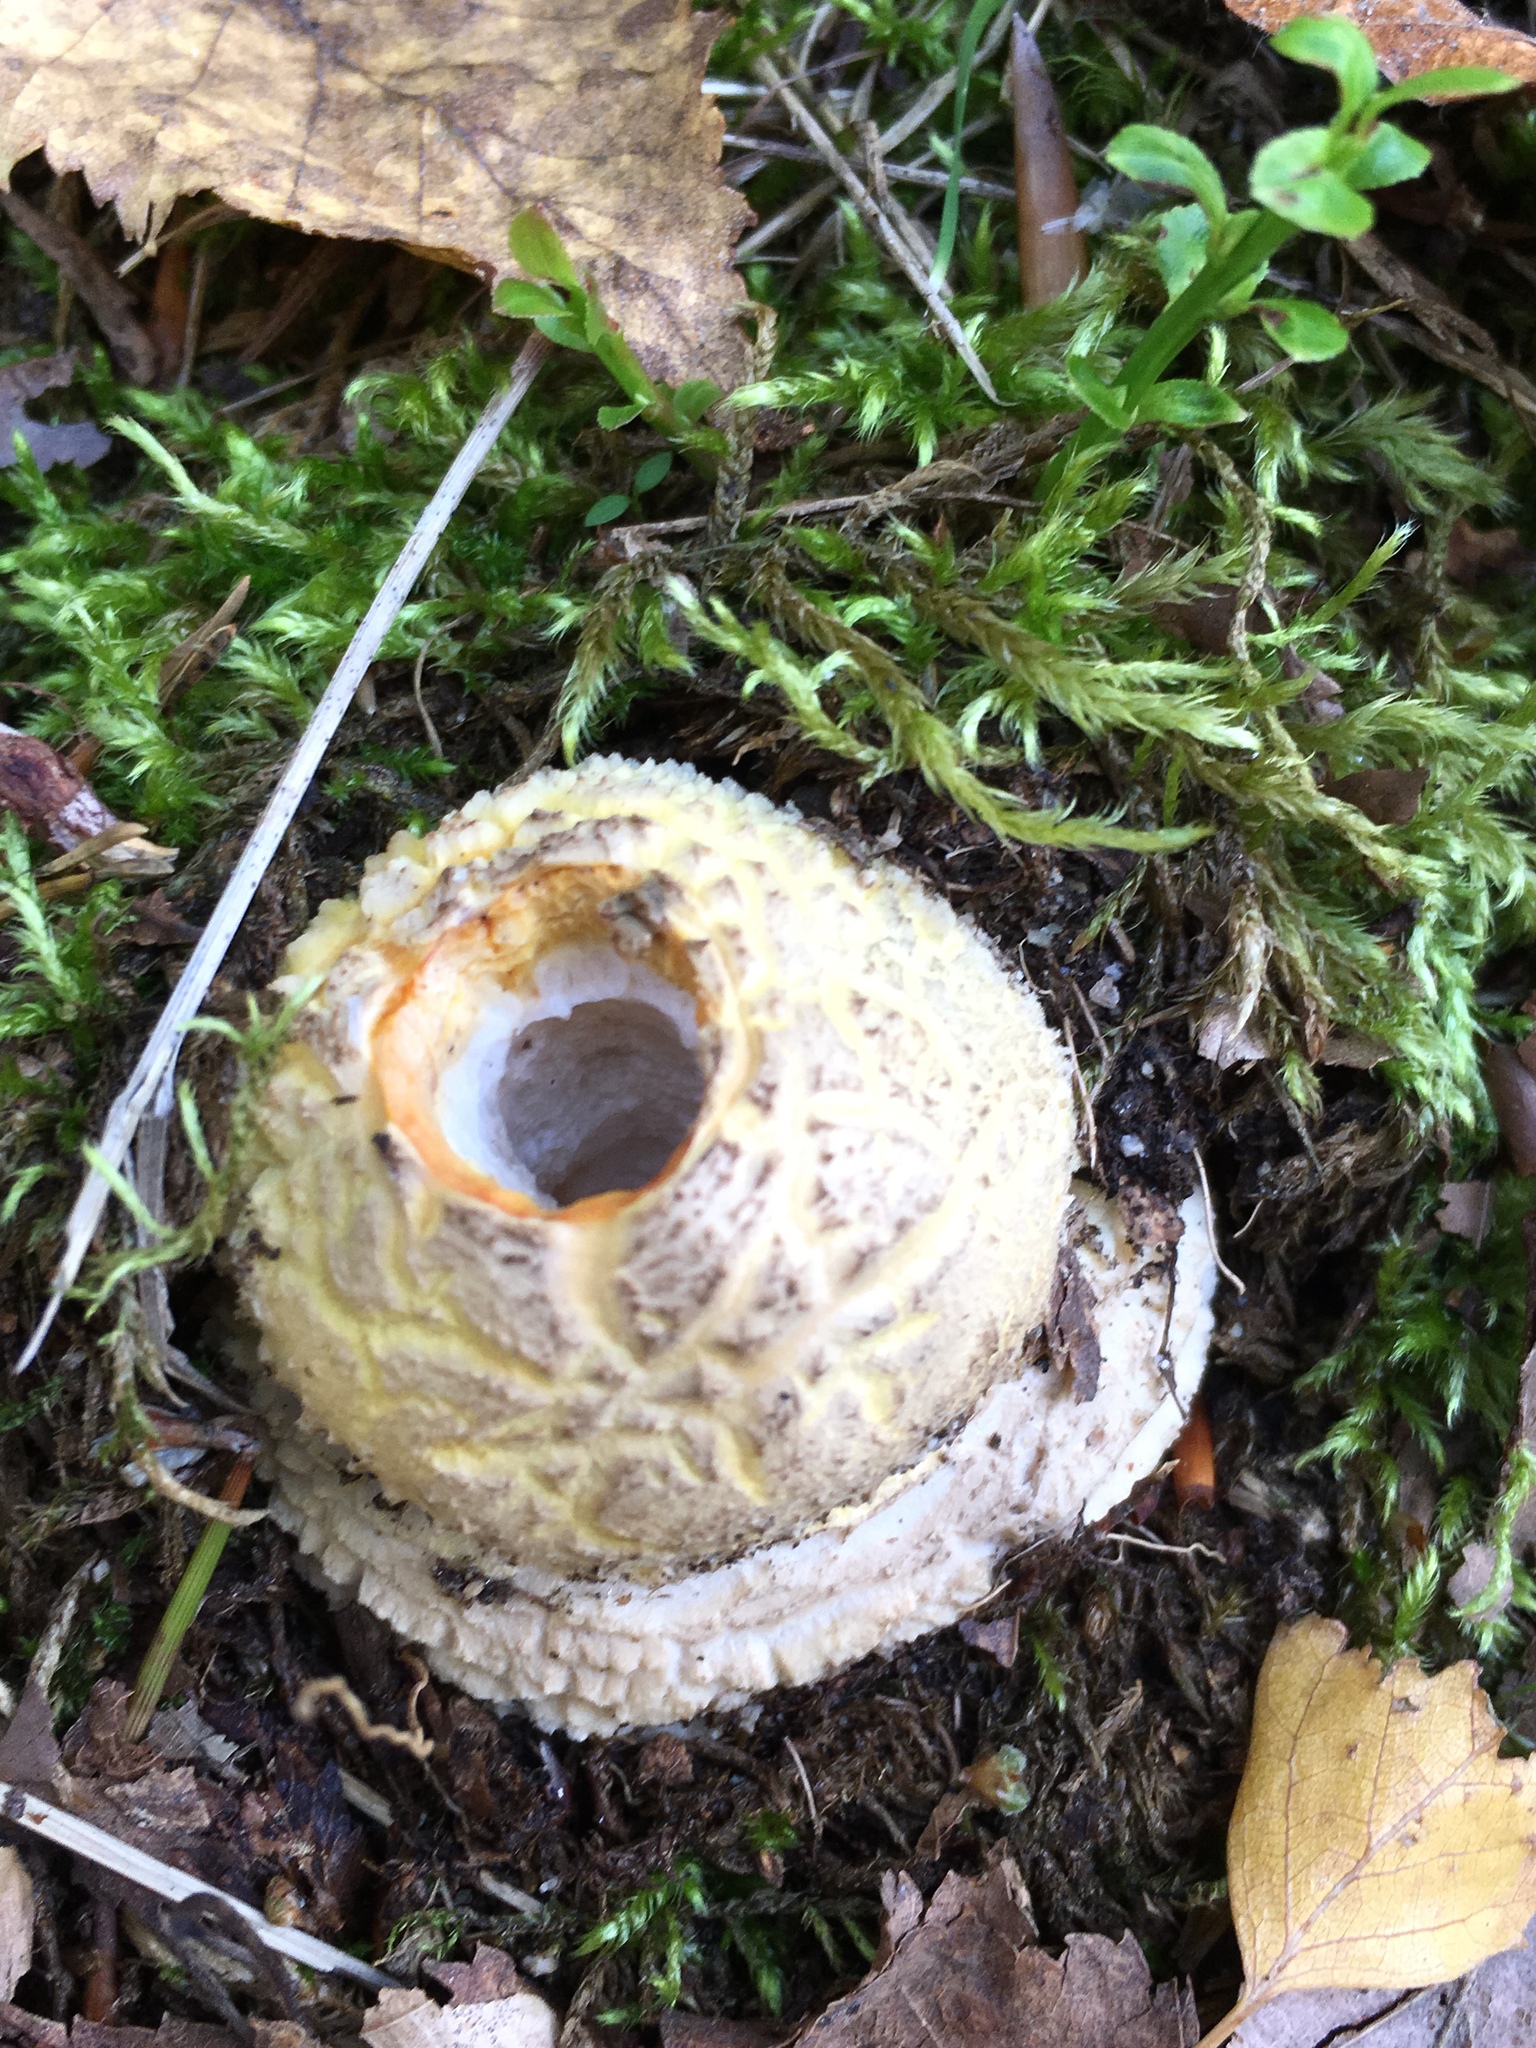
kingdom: Fungi
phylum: Basidiomycota
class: Agaricomycetes
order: Agaricales
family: Amanitaceae
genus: Amanita
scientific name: Amanita gemmata
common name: Jewelled amanita
